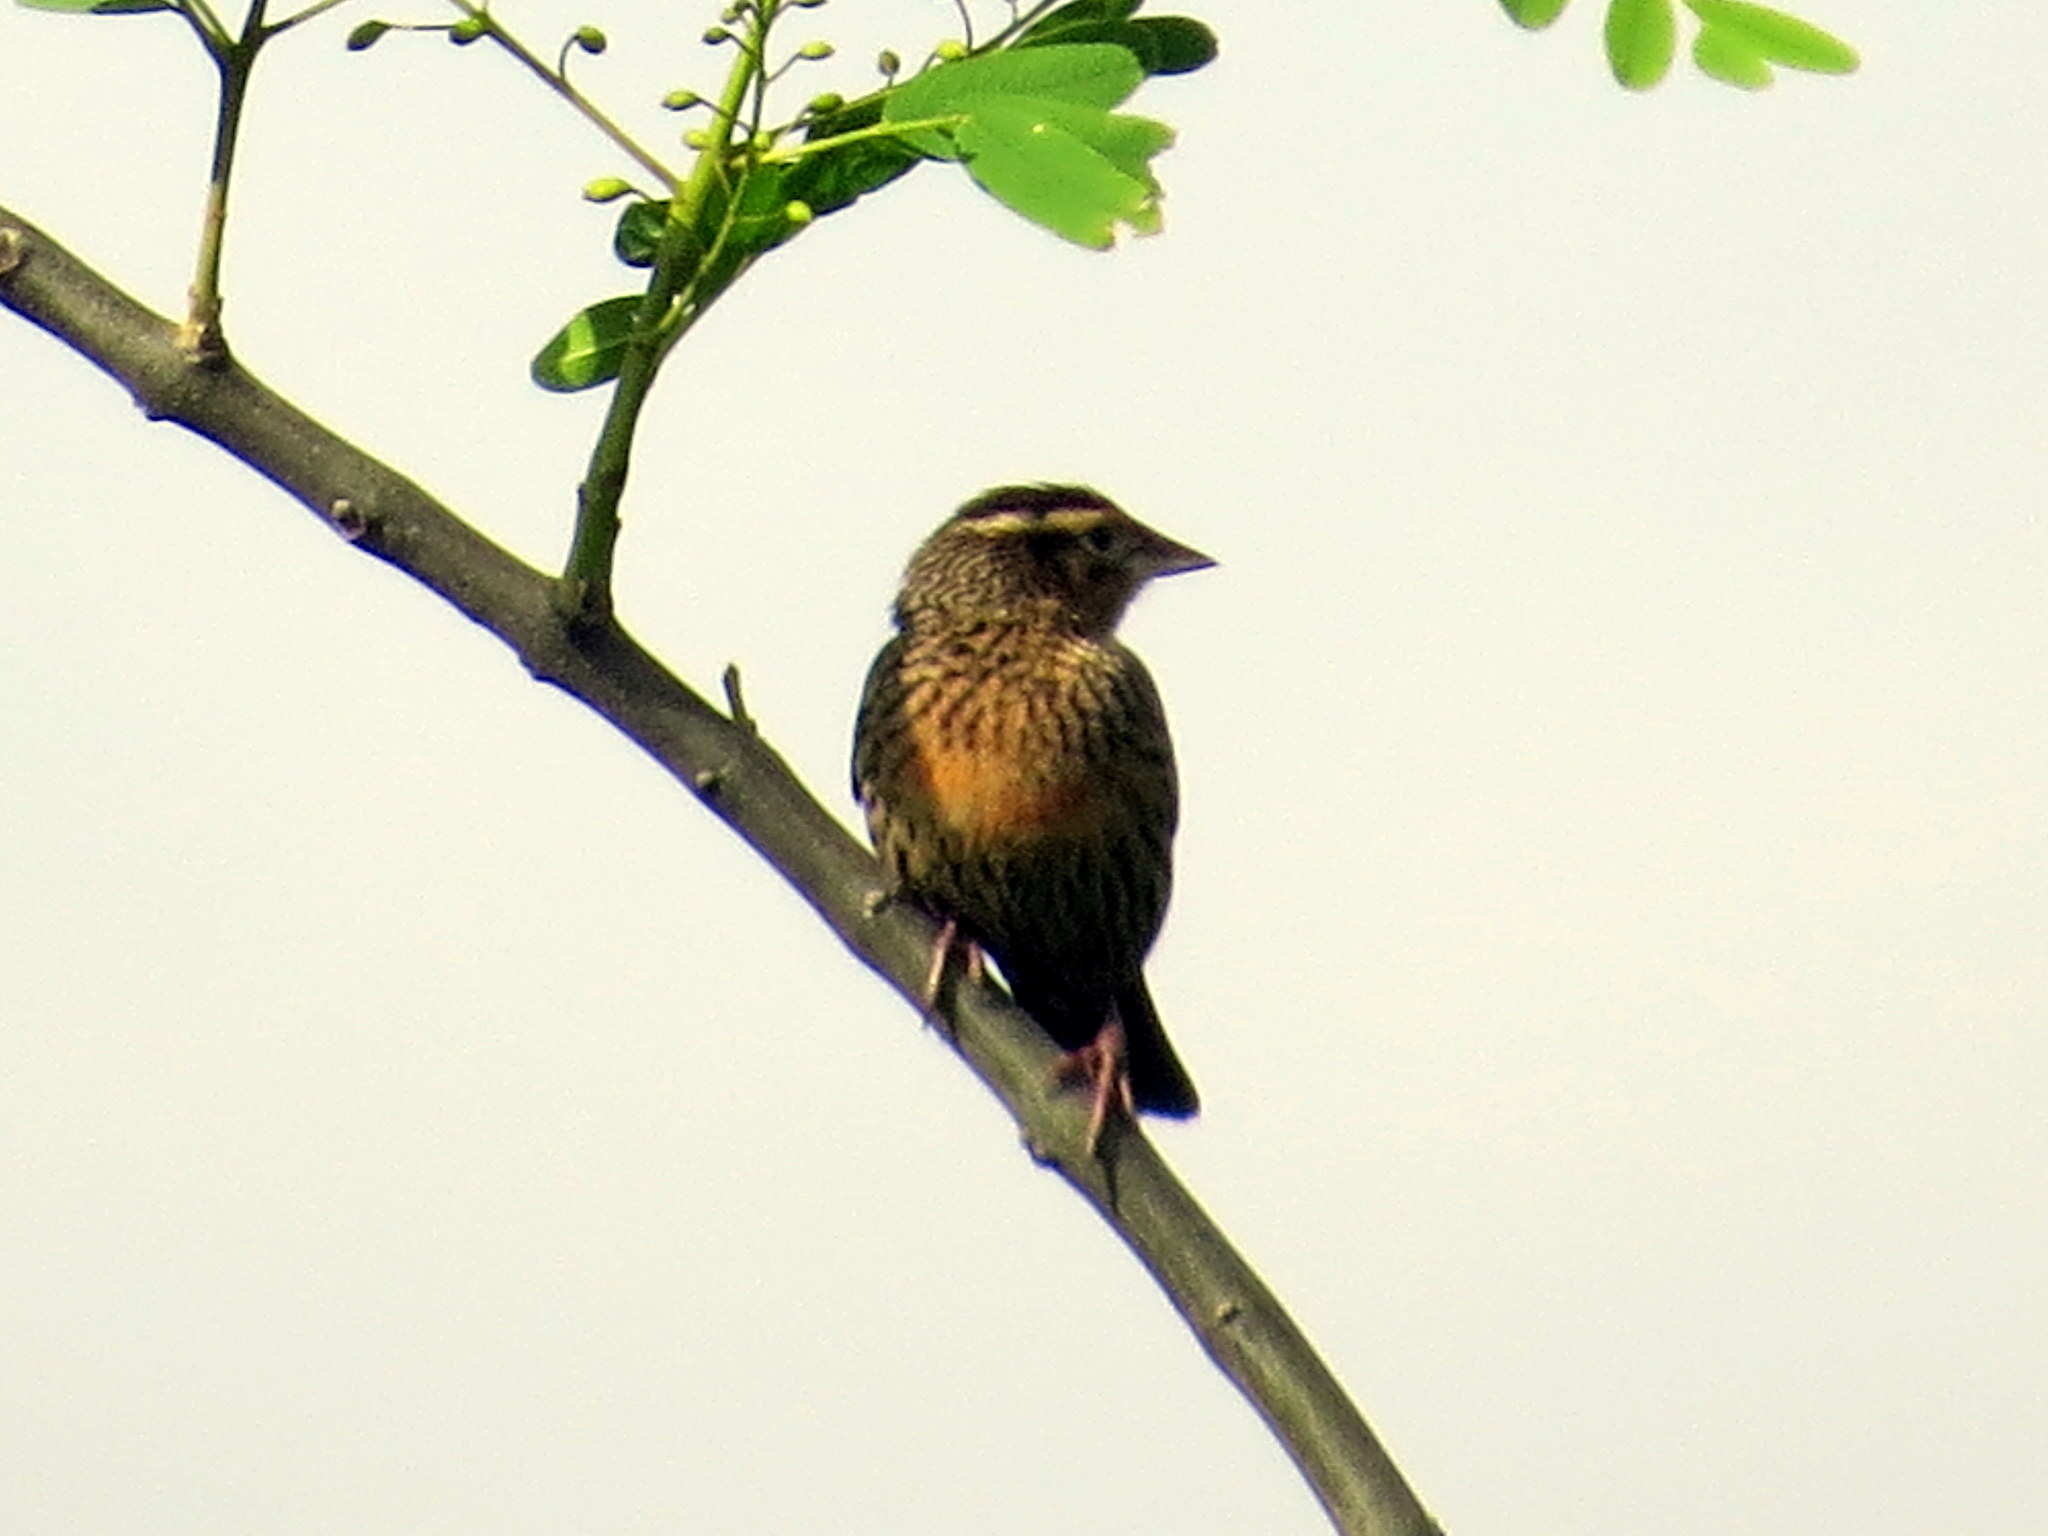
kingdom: Animalia
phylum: Chordata
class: Aves
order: Passeriformes
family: Icteridae
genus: Sturnella
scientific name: Sturnella superciliaris
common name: White-browed blackbird
